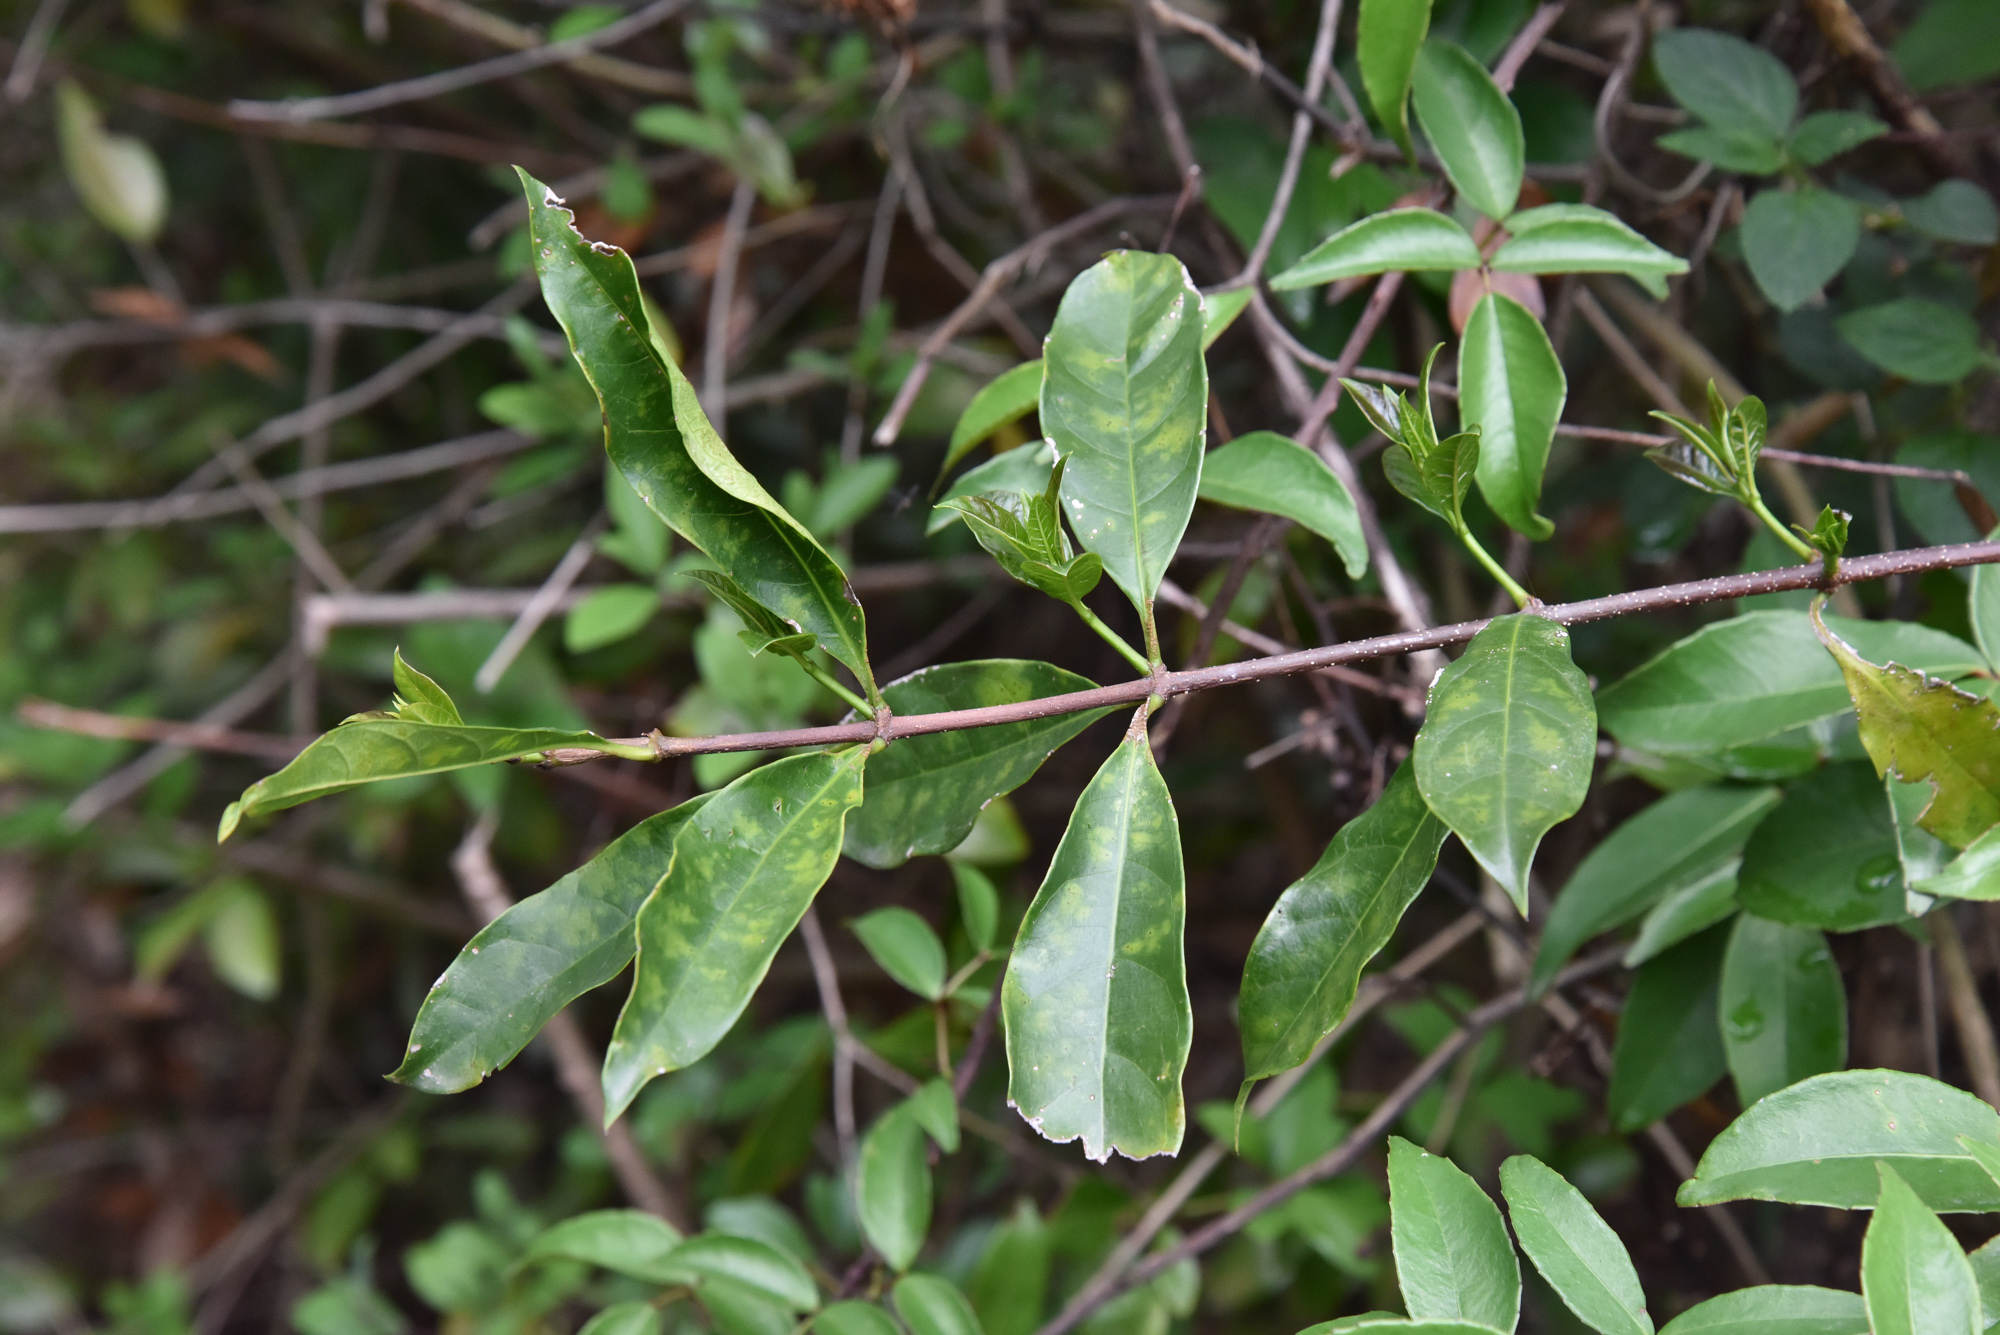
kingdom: Plantae
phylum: Tracheophyta
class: Magnoliopsida
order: Gentianales
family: Apocynaceae
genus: Strophanthus
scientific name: Strophanthus divaricatus
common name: Goat-horns
